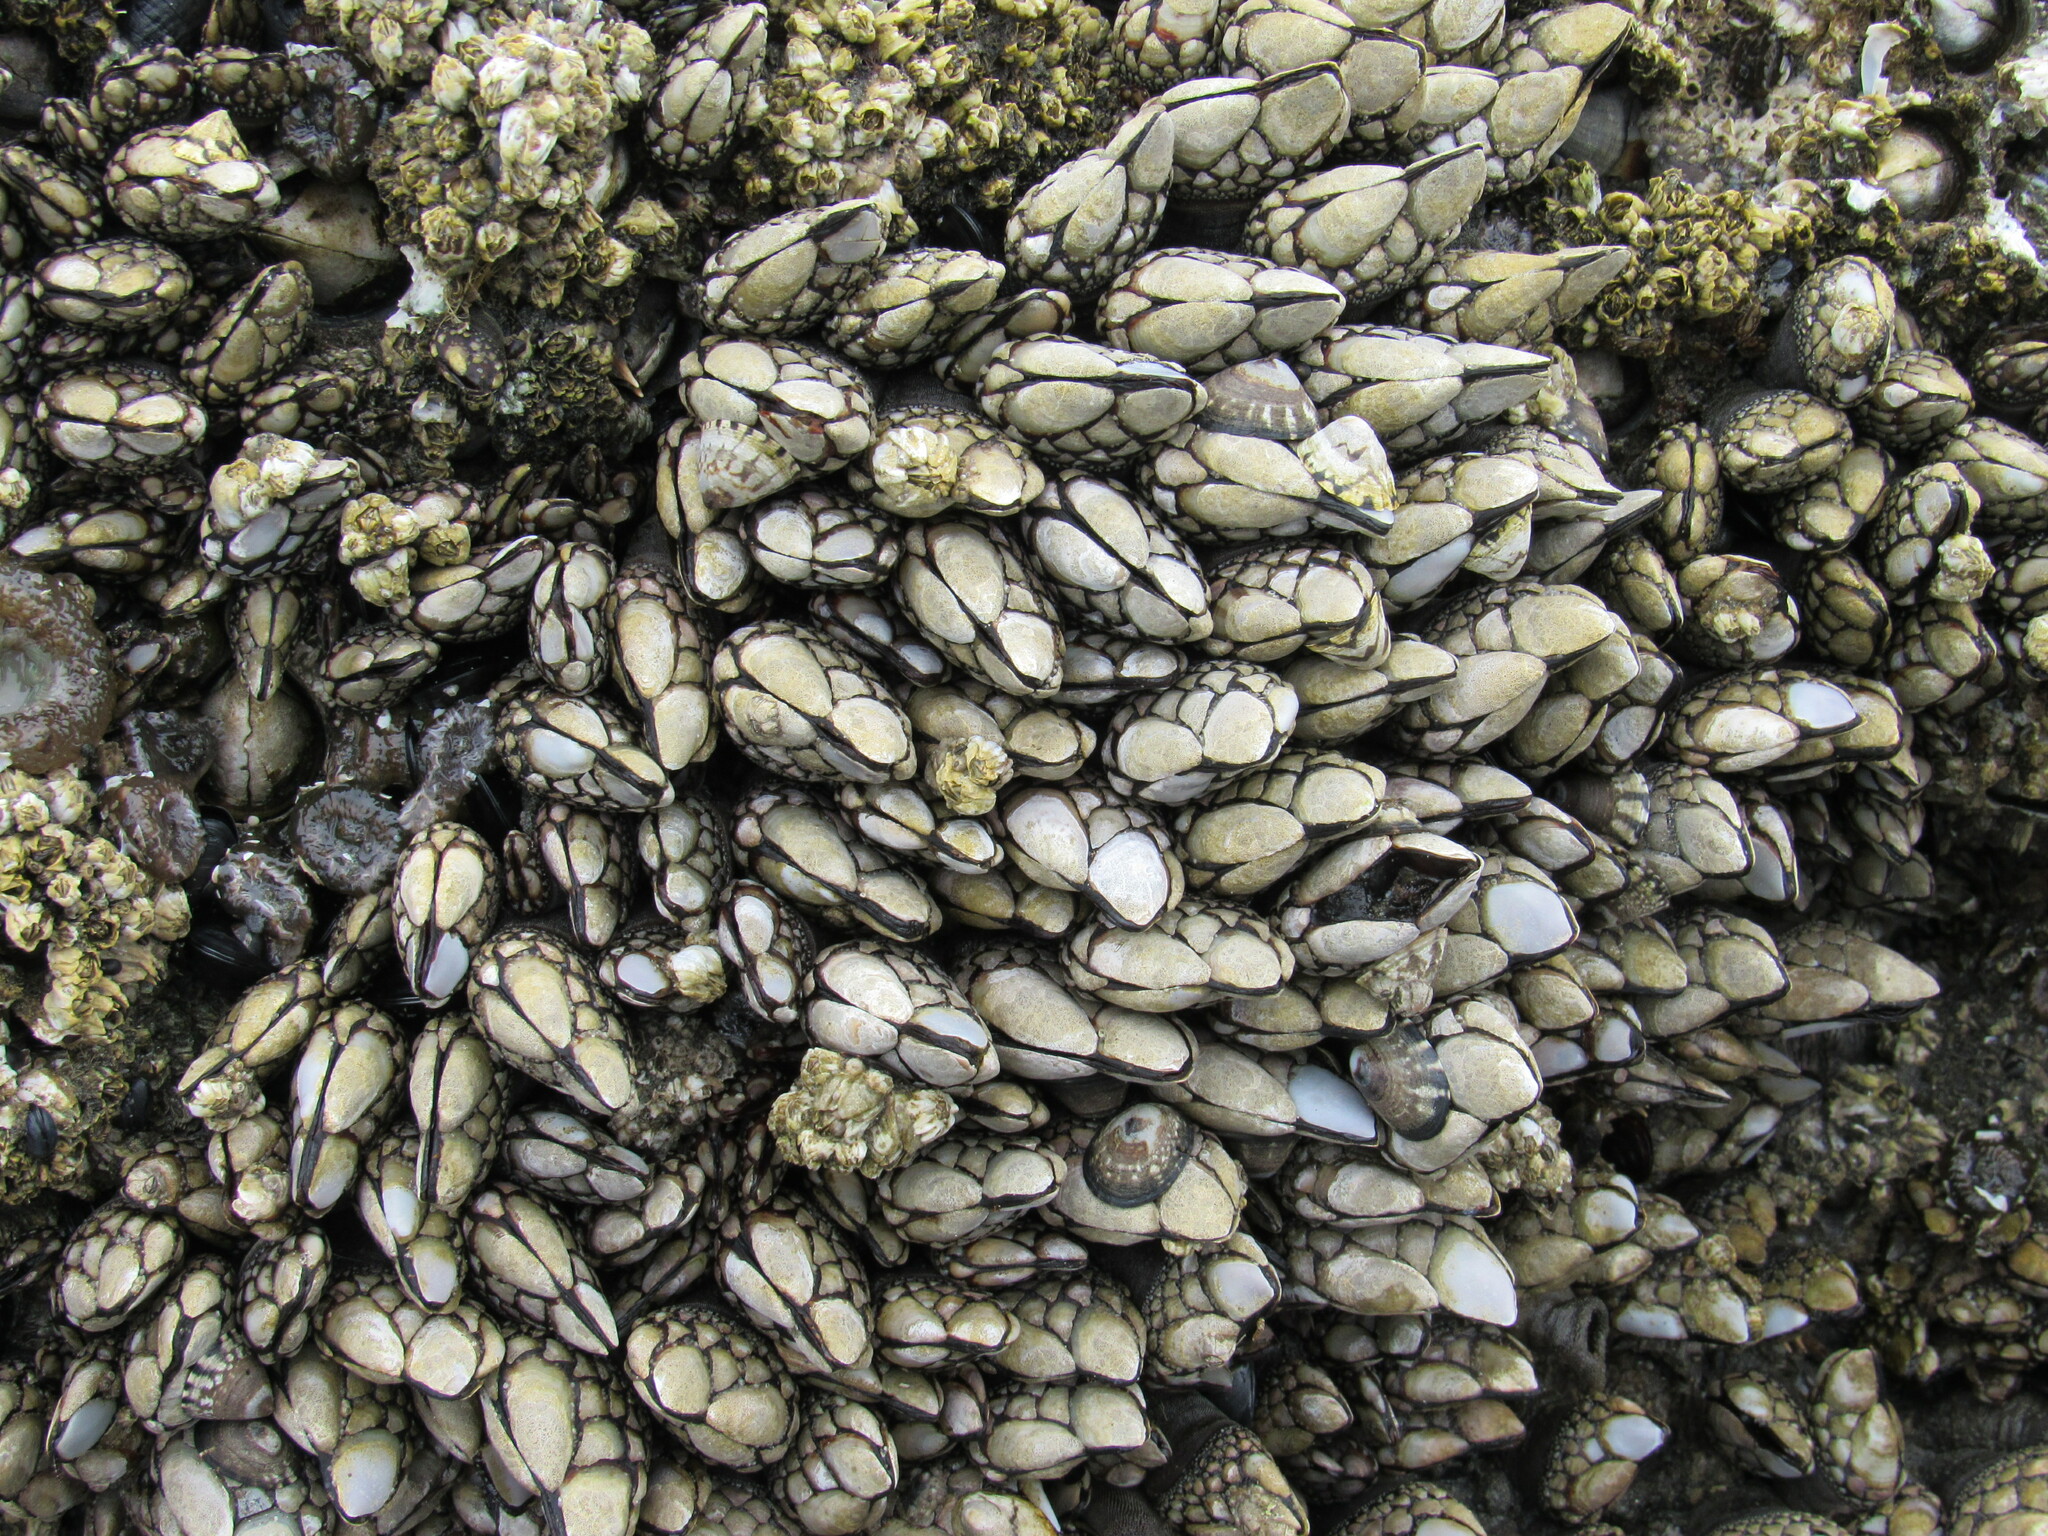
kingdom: Animalia
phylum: Arthropoda
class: Maxillopoda
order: Pedunculata
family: Pollicipedidae
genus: Pollicipes
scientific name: Pollicipes polymerus
